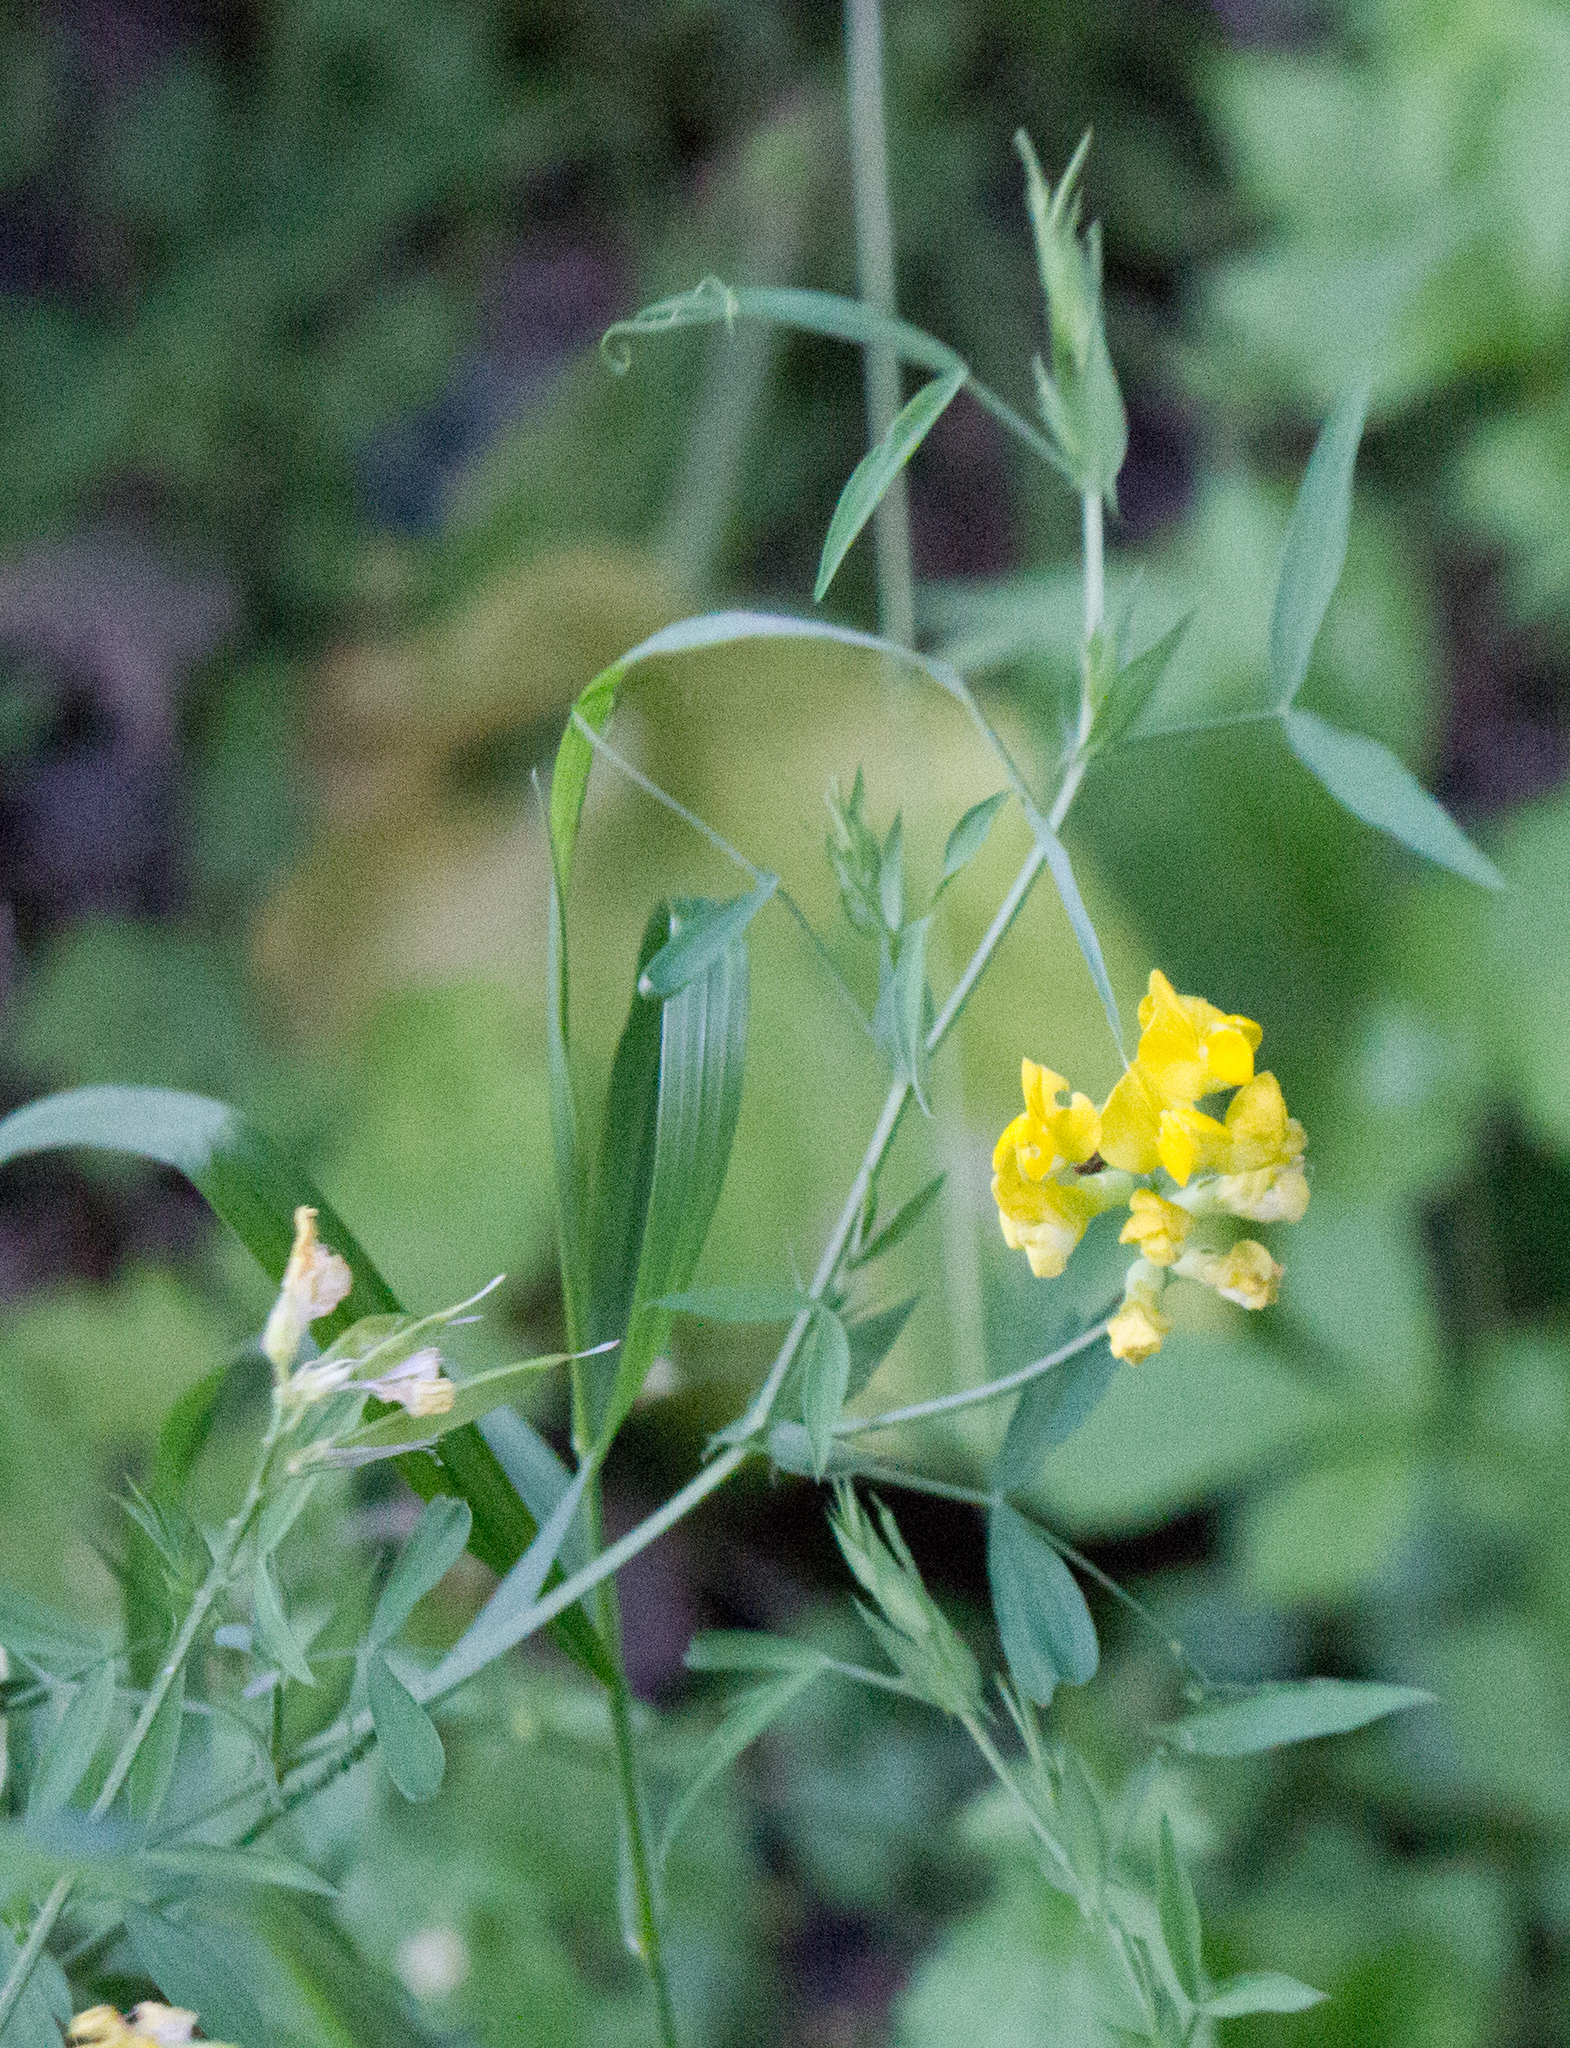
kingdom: Plantae
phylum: Tracheophyta
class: Magnoliopsida
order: Fabales
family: Fabaceae
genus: Lathyrus
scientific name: Lathyrus pratensis
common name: Meadow vetchling
